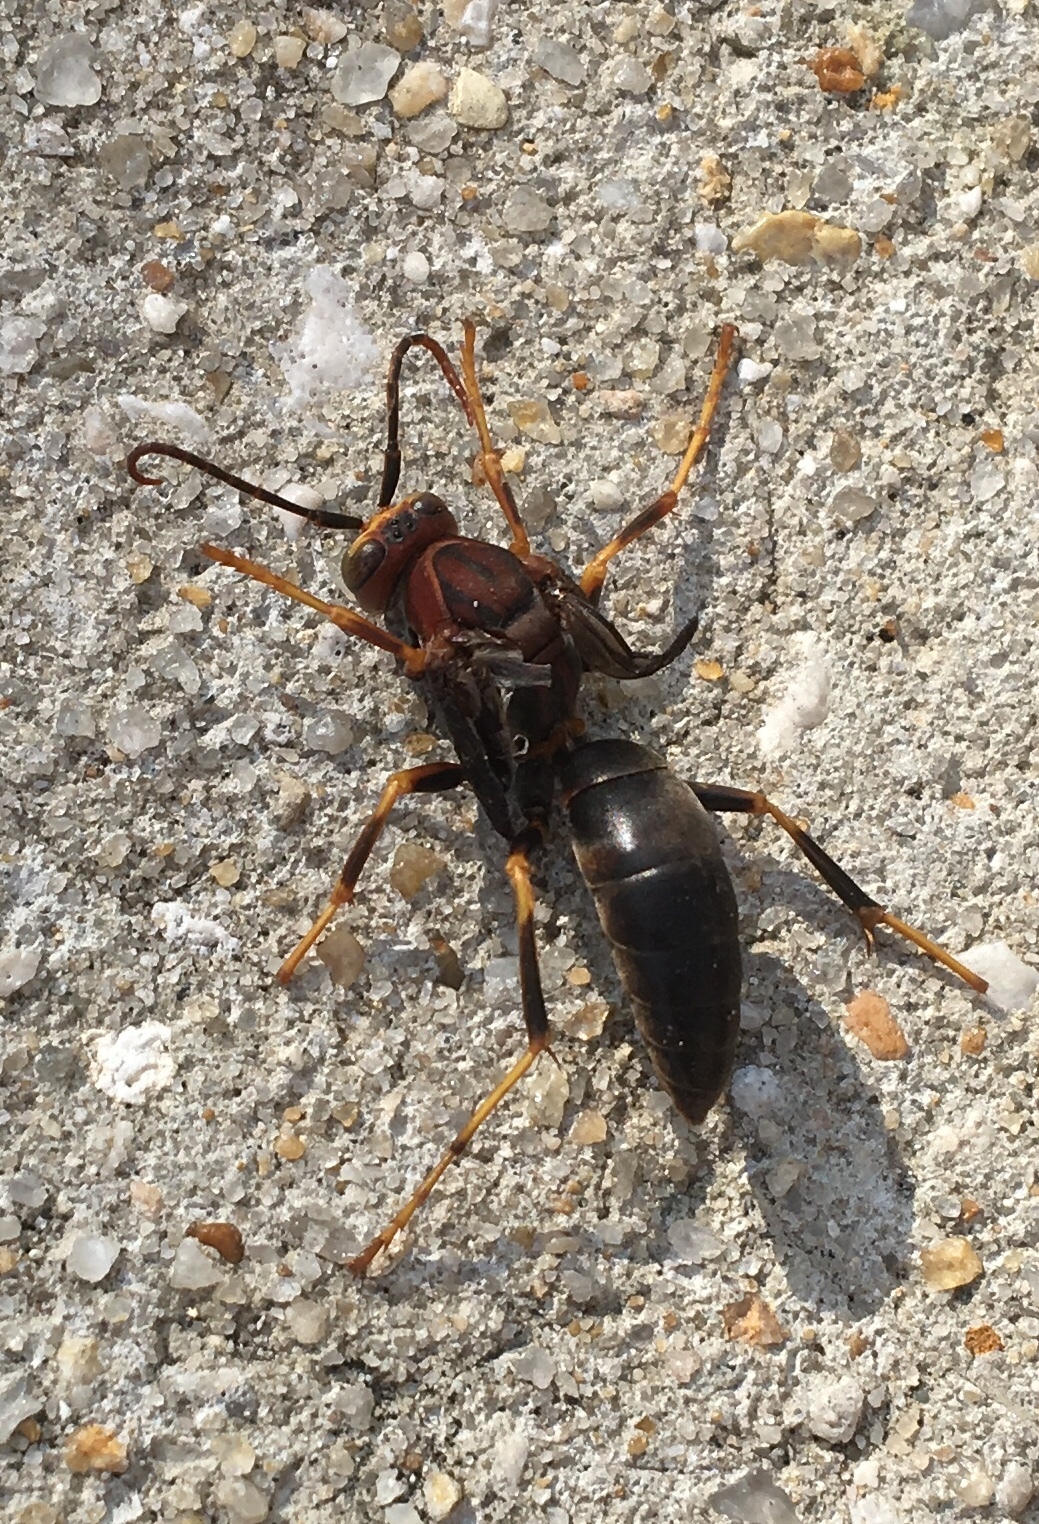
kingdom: Animalia
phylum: Arthropoda
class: Insecta
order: Hymenoptera
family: Eumenidae
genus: Polistes
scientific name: Polistes metricus
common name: Metric paper wasp
